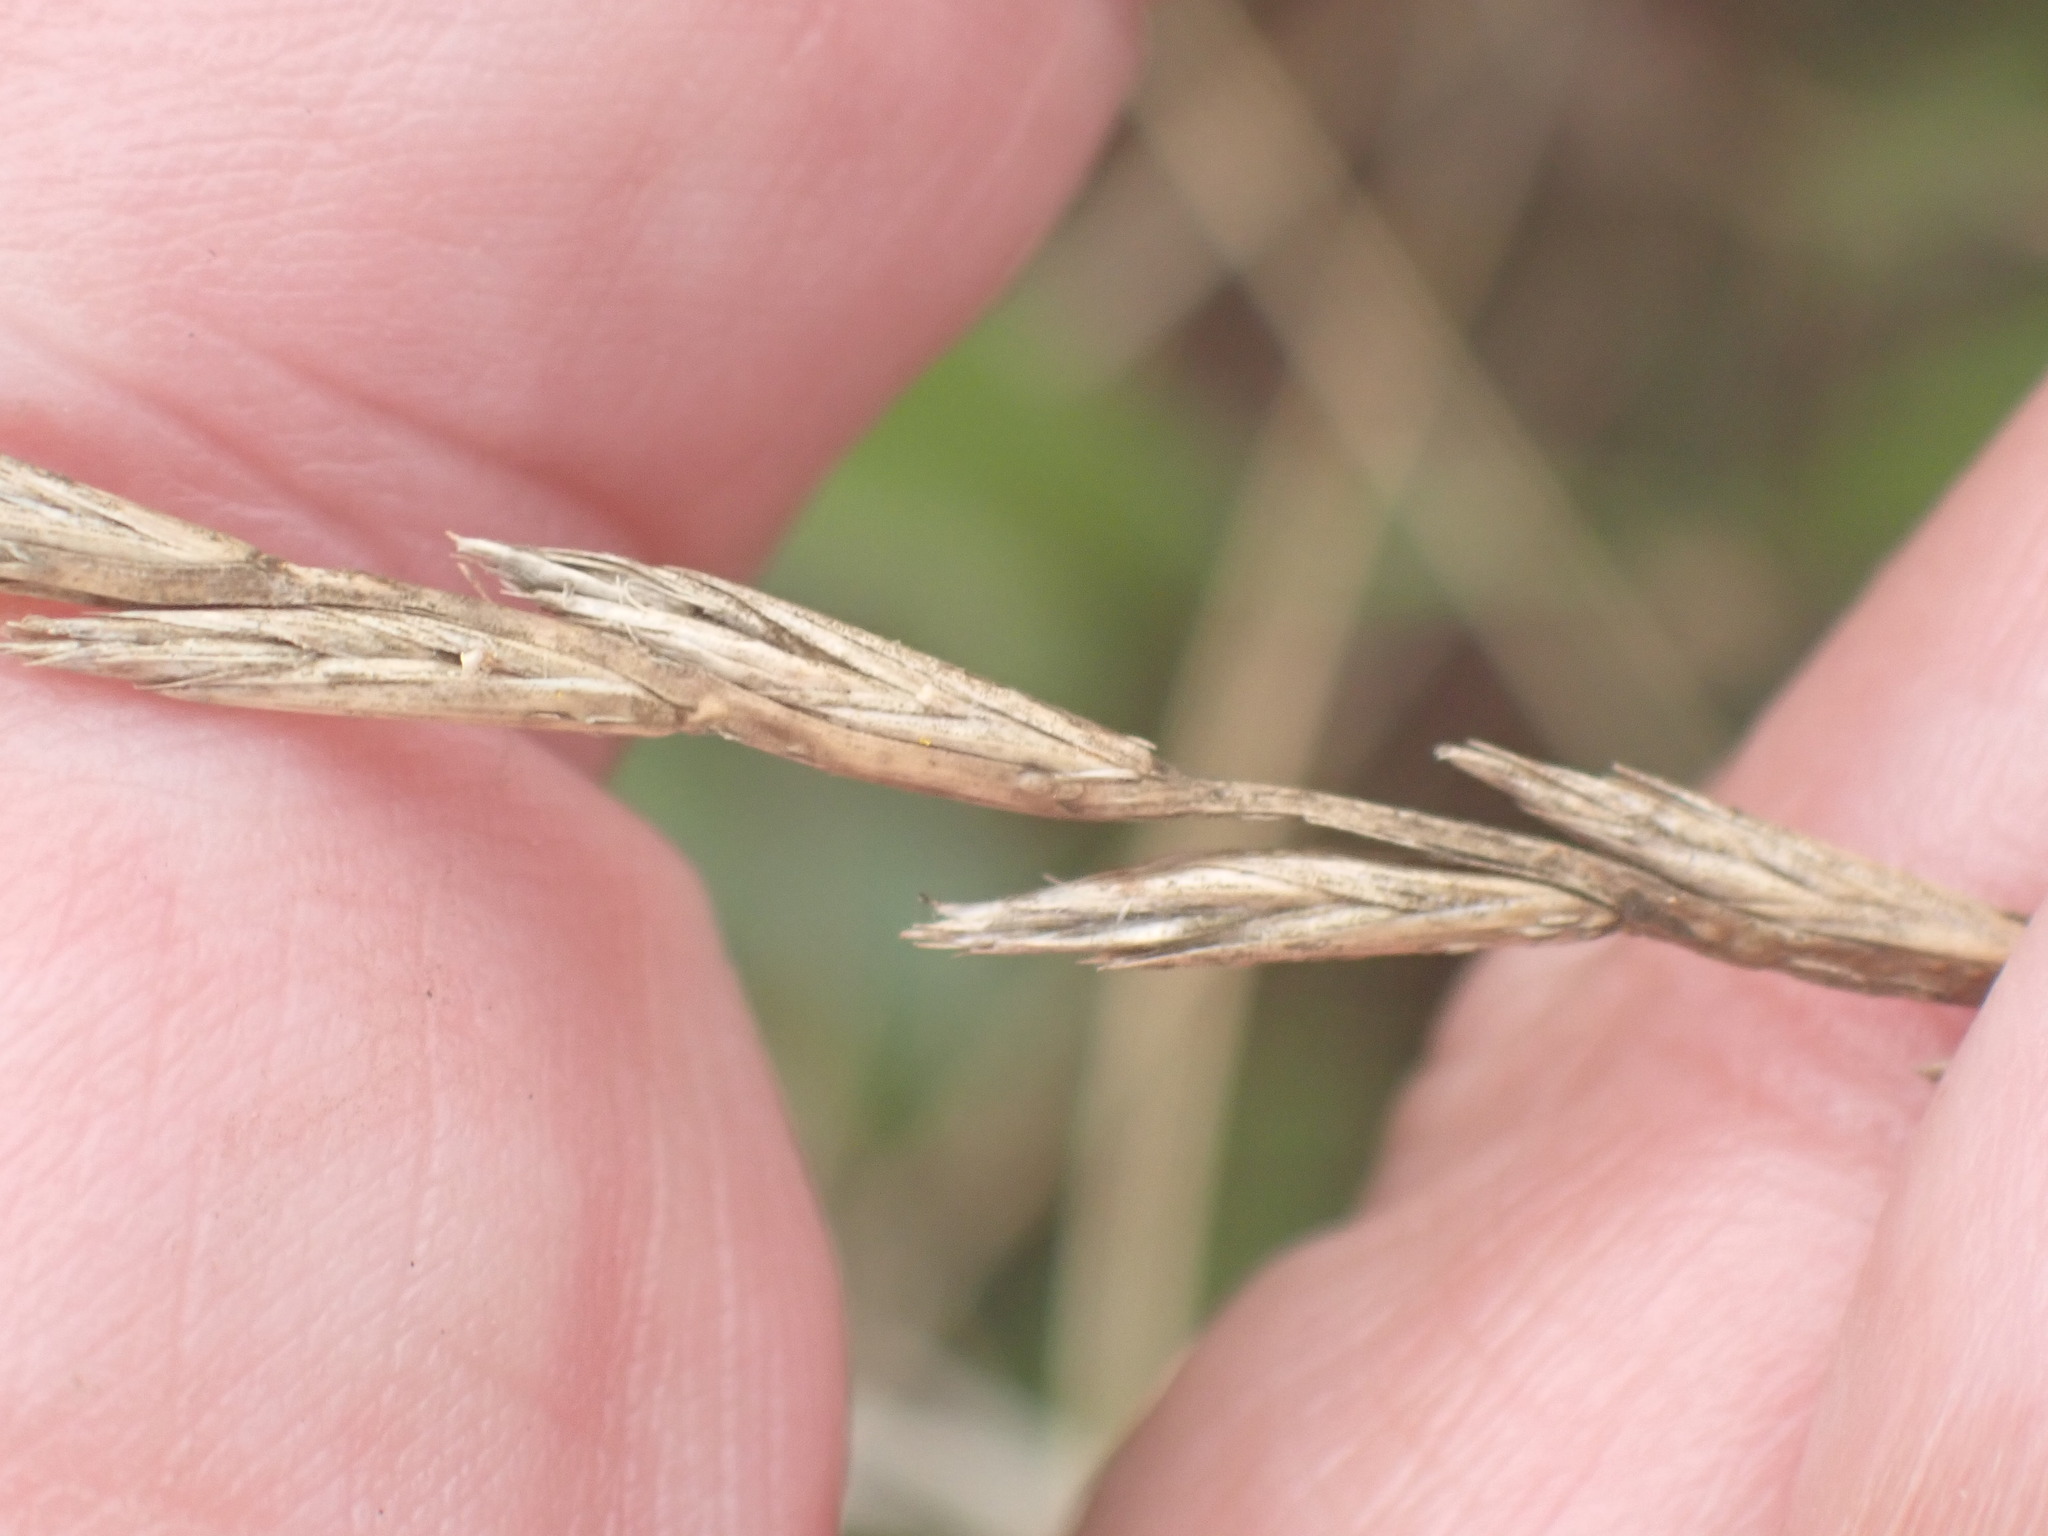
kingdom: Plantae
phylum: Tracheophyta
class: Liliopsida
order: Poales
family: Poaceae
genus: Lolium
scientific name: Lolium perenne
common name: Perennial ryegrass
